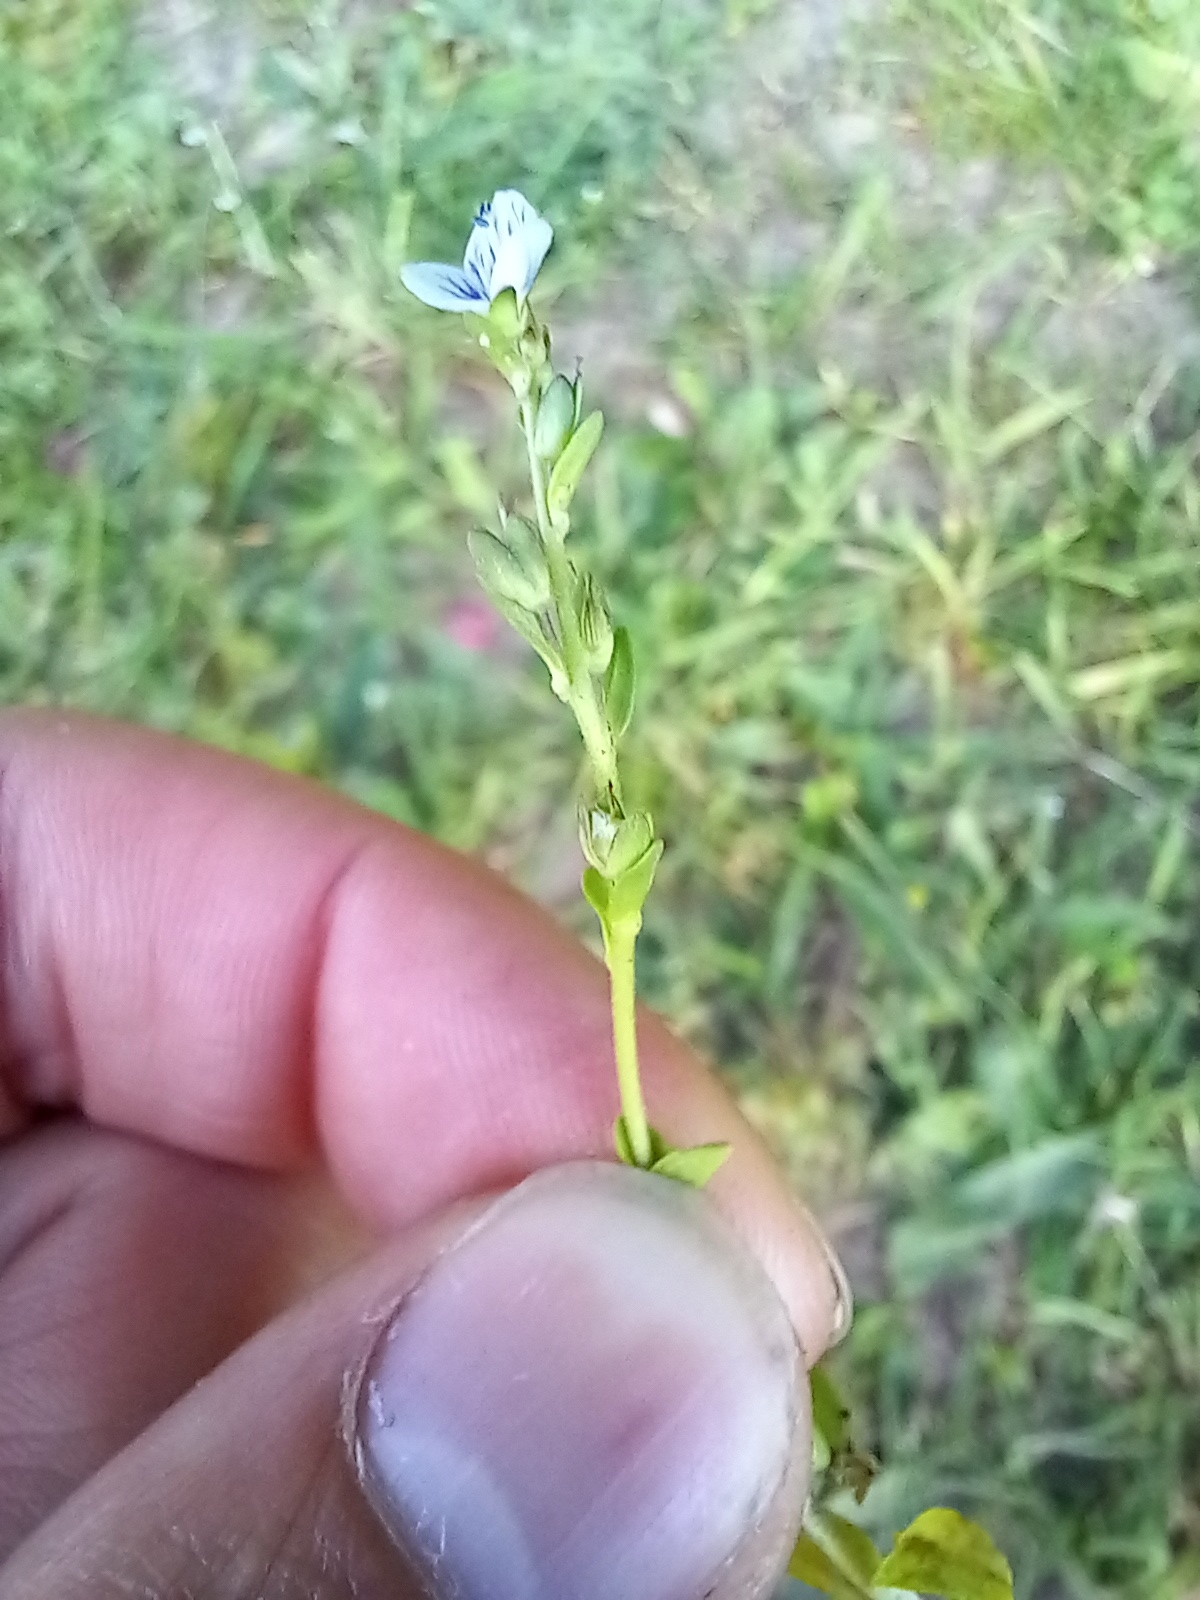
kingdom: Plantae
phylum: Tracheophyta
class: Magnoliopsida
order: Lamiales
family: Plantaginaceae
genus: Veronica
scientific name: Veronica serpyllifolia
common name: Thyme-leaved speedwell
